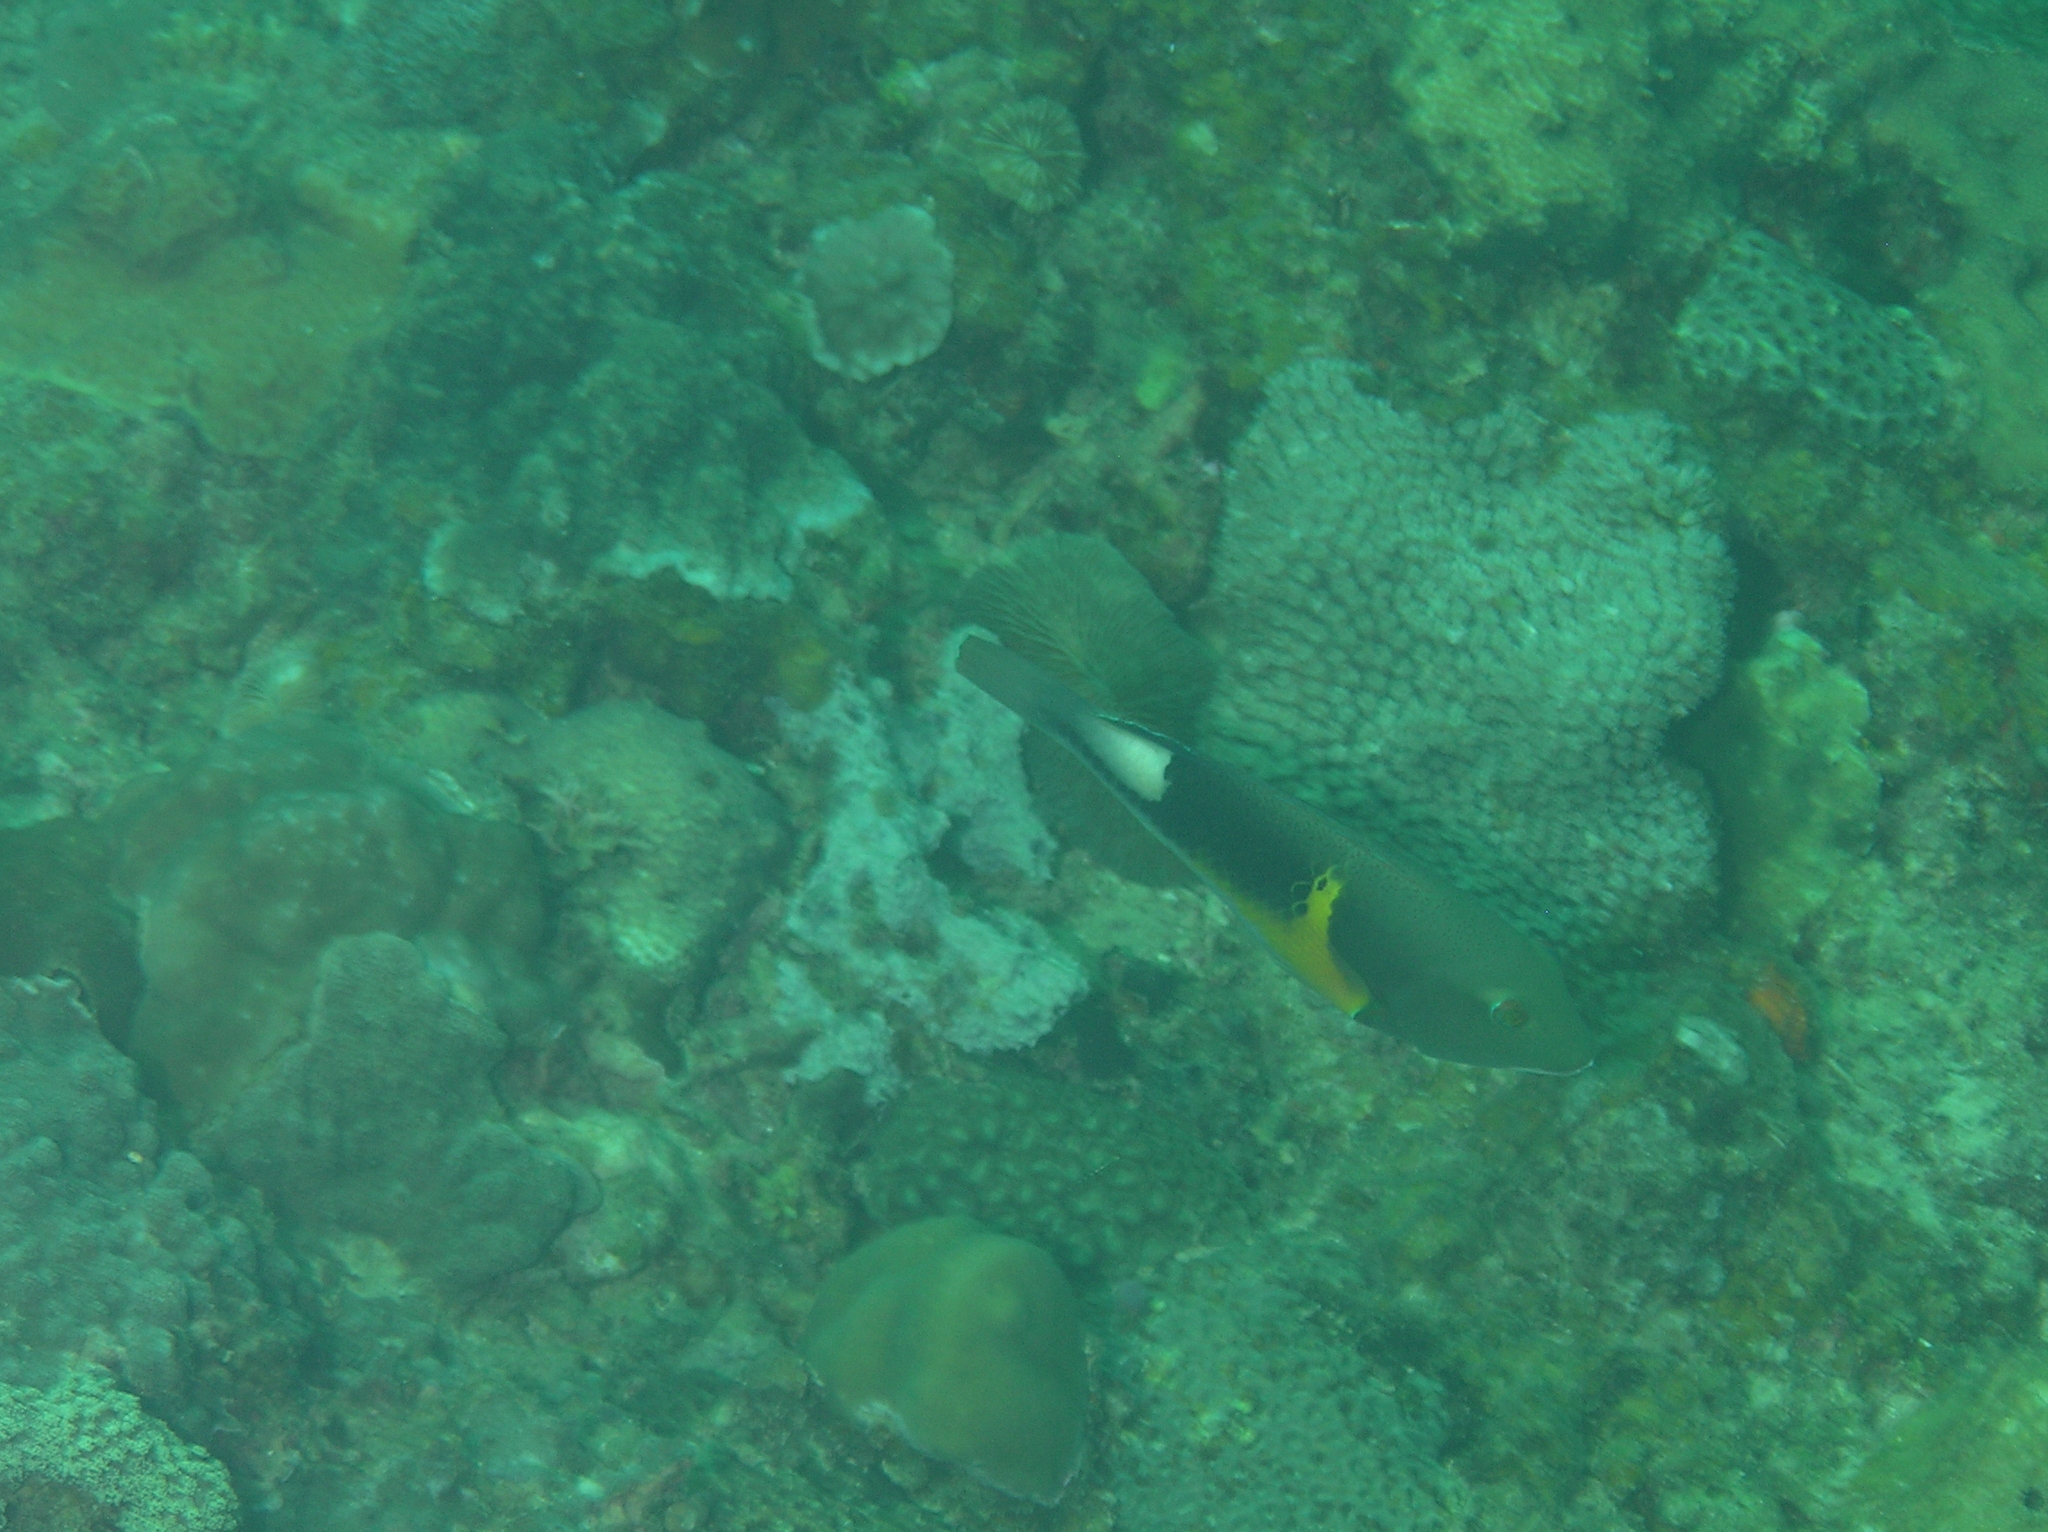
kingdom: Animalia
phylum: Chordata
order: Perciformes
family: Labridae
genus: Choerodon
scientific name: Choerodon anchorago
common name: Anchor tuskfish
